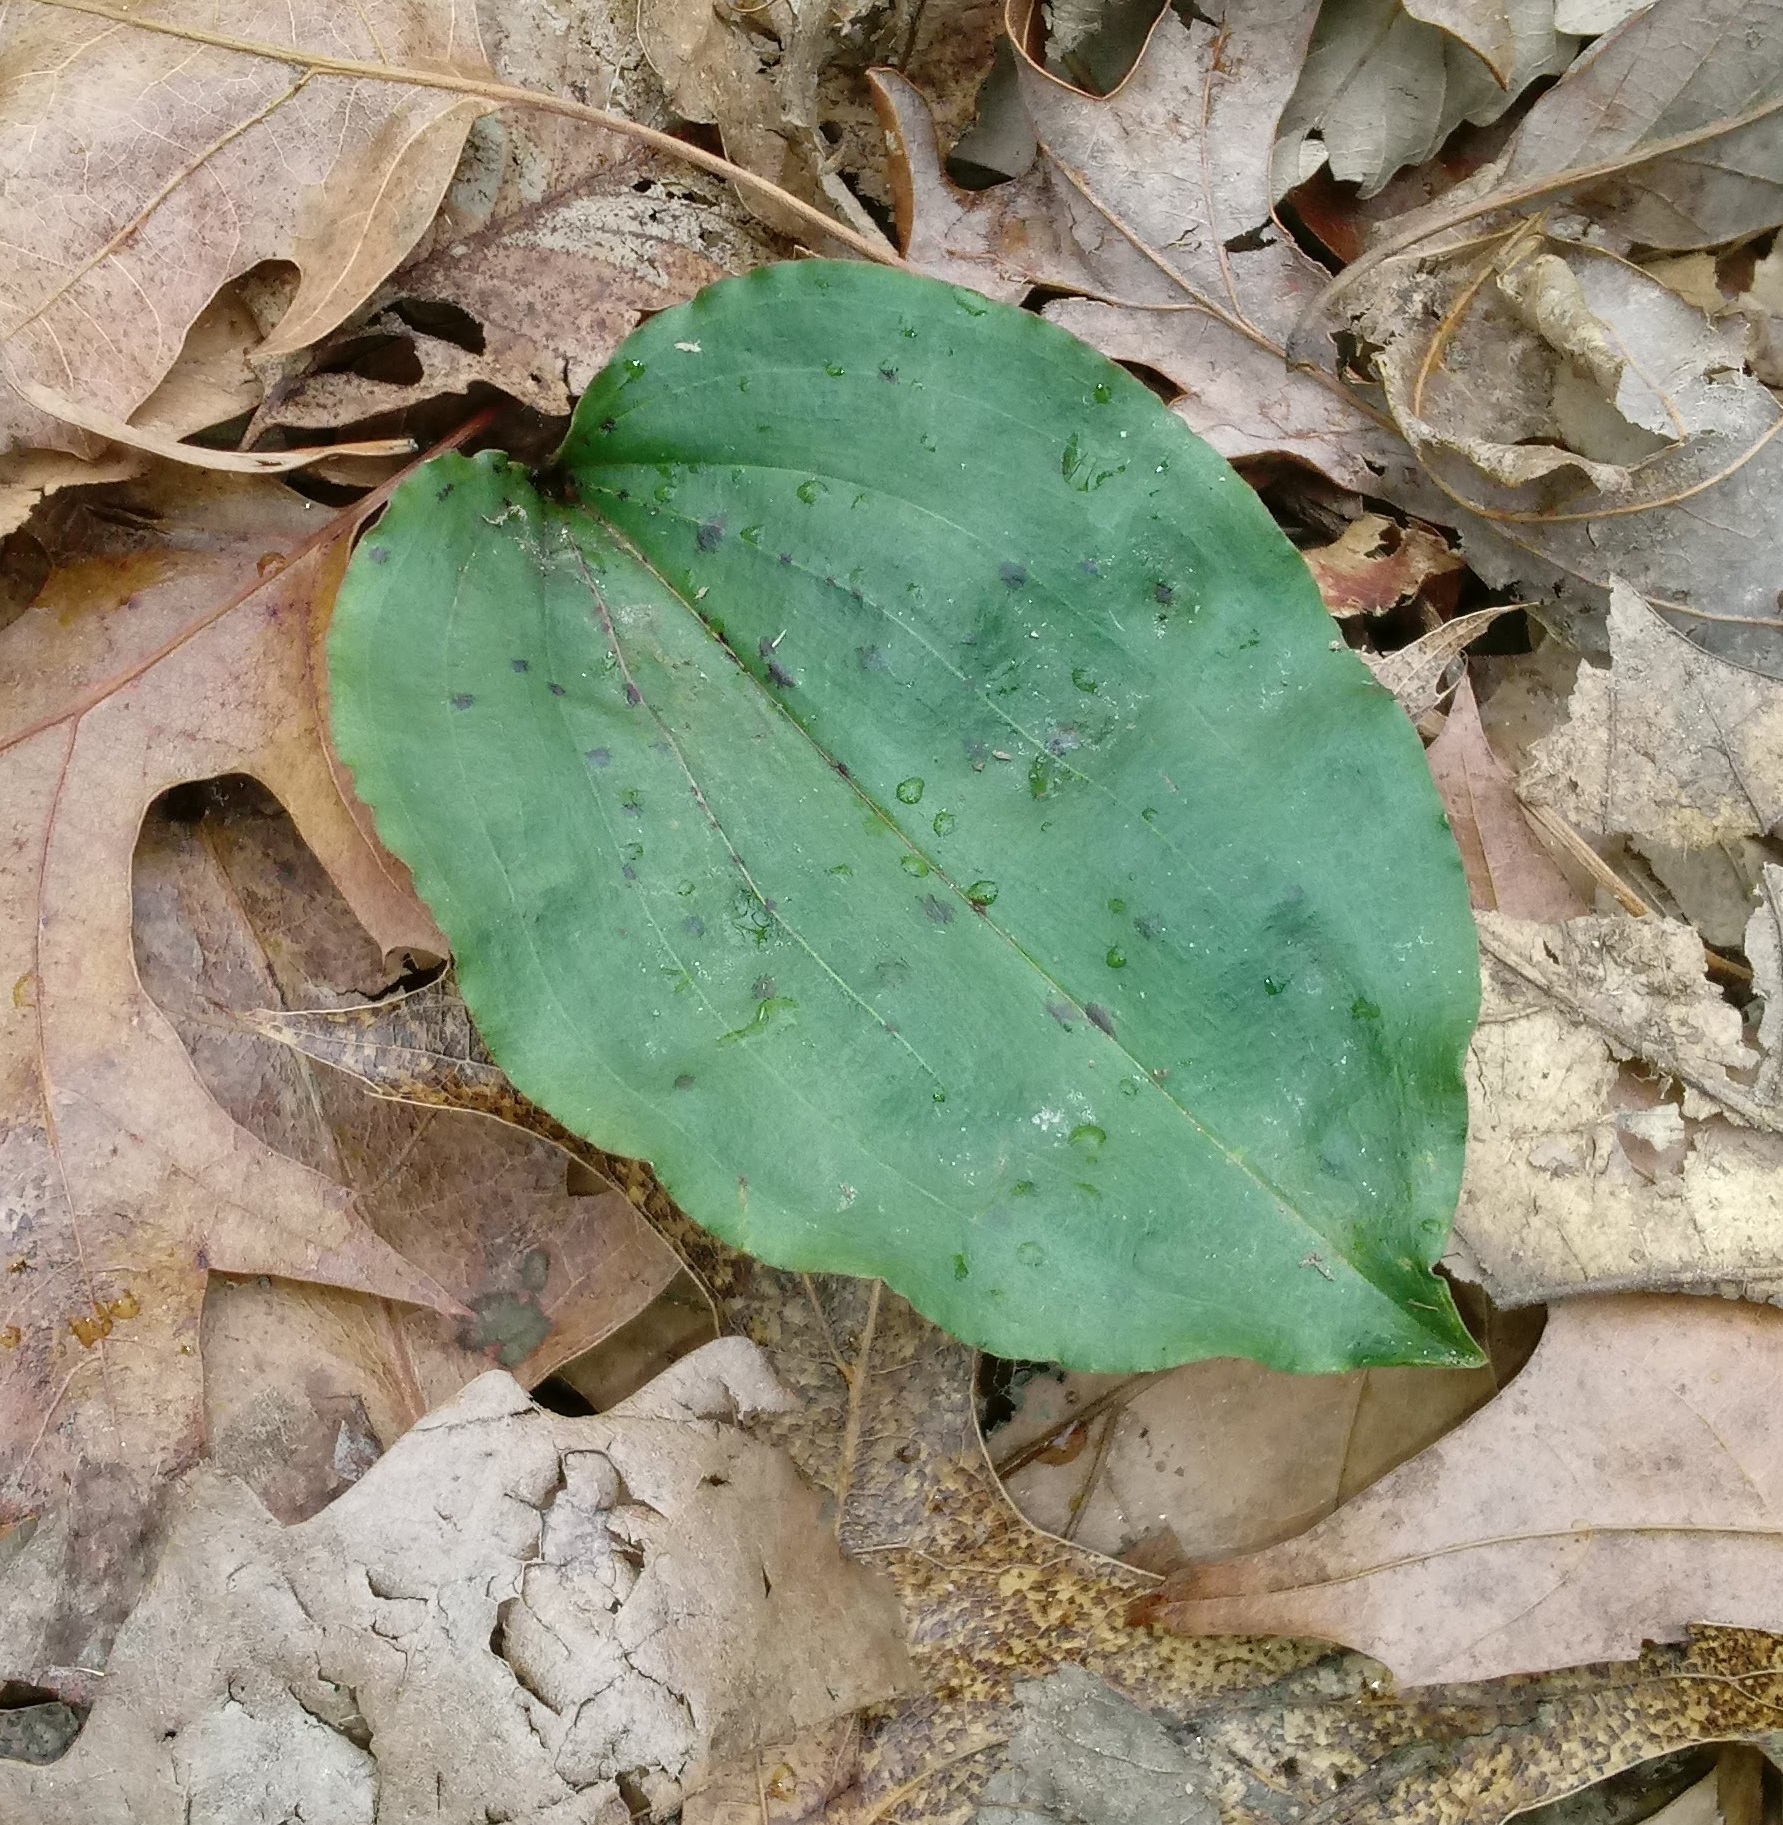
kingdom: Plantae
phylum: Tracheophyta
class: Liliopsida
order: Asparagales
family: Orchidaceae
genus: Tipularia
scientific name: Tipularia discolor
